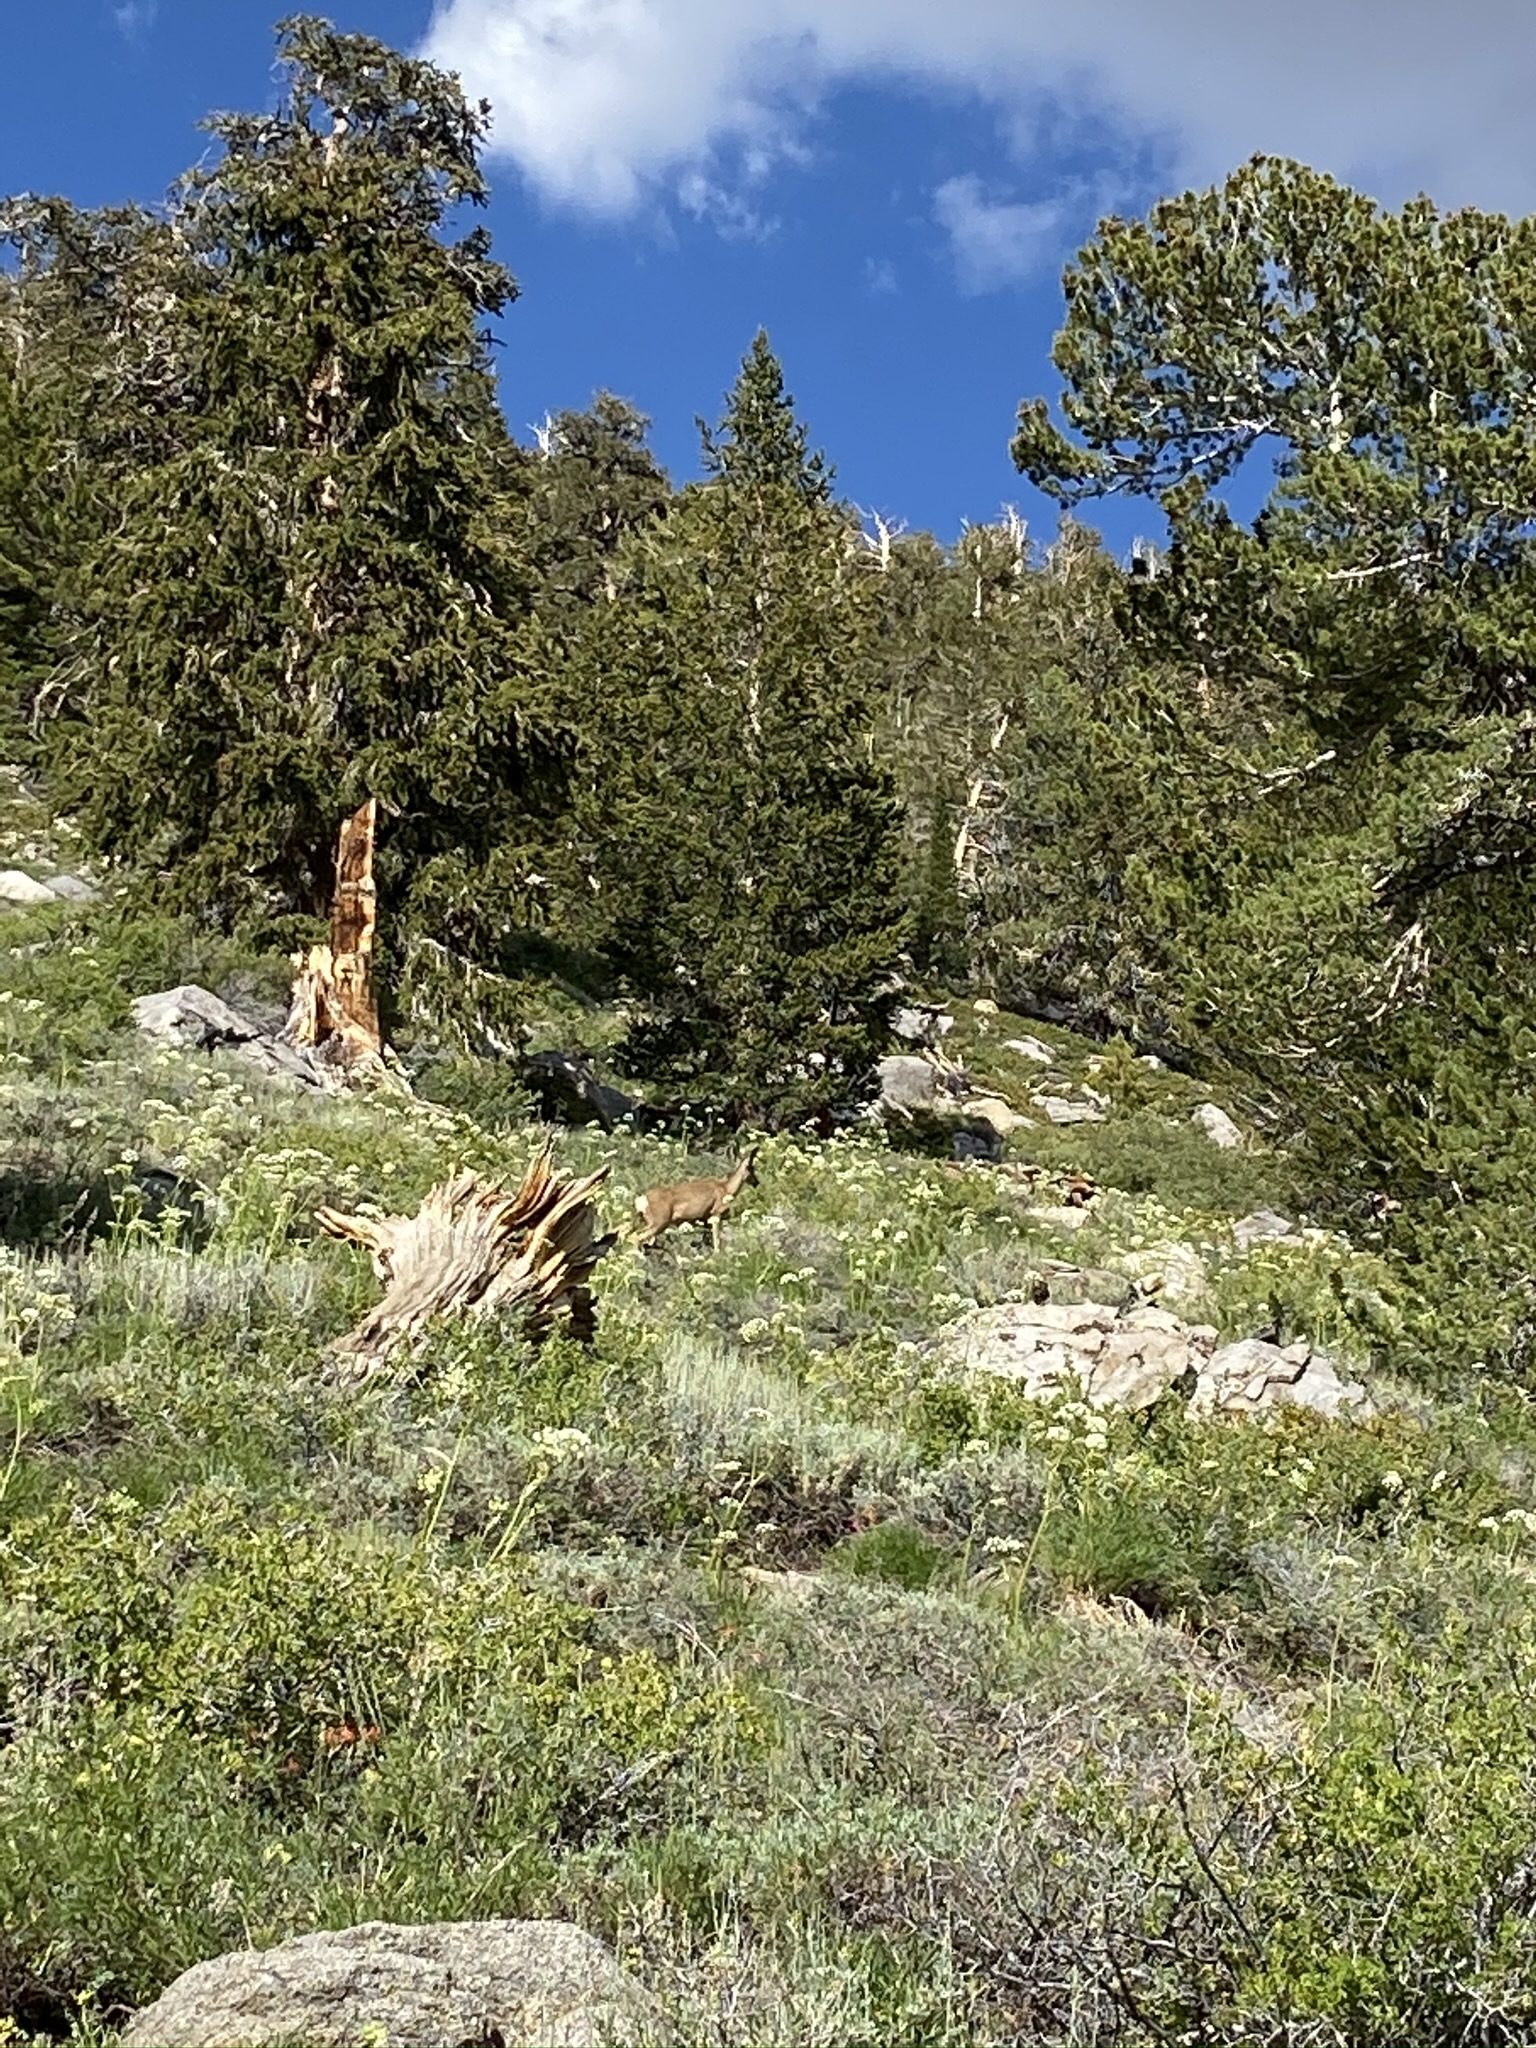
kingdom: Animalia
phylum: Chordata
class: Mammalia
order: Artiodactyla
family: Cervidae
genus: Odocoileus
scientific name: Odocoileus hemionus
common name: Mule deer
